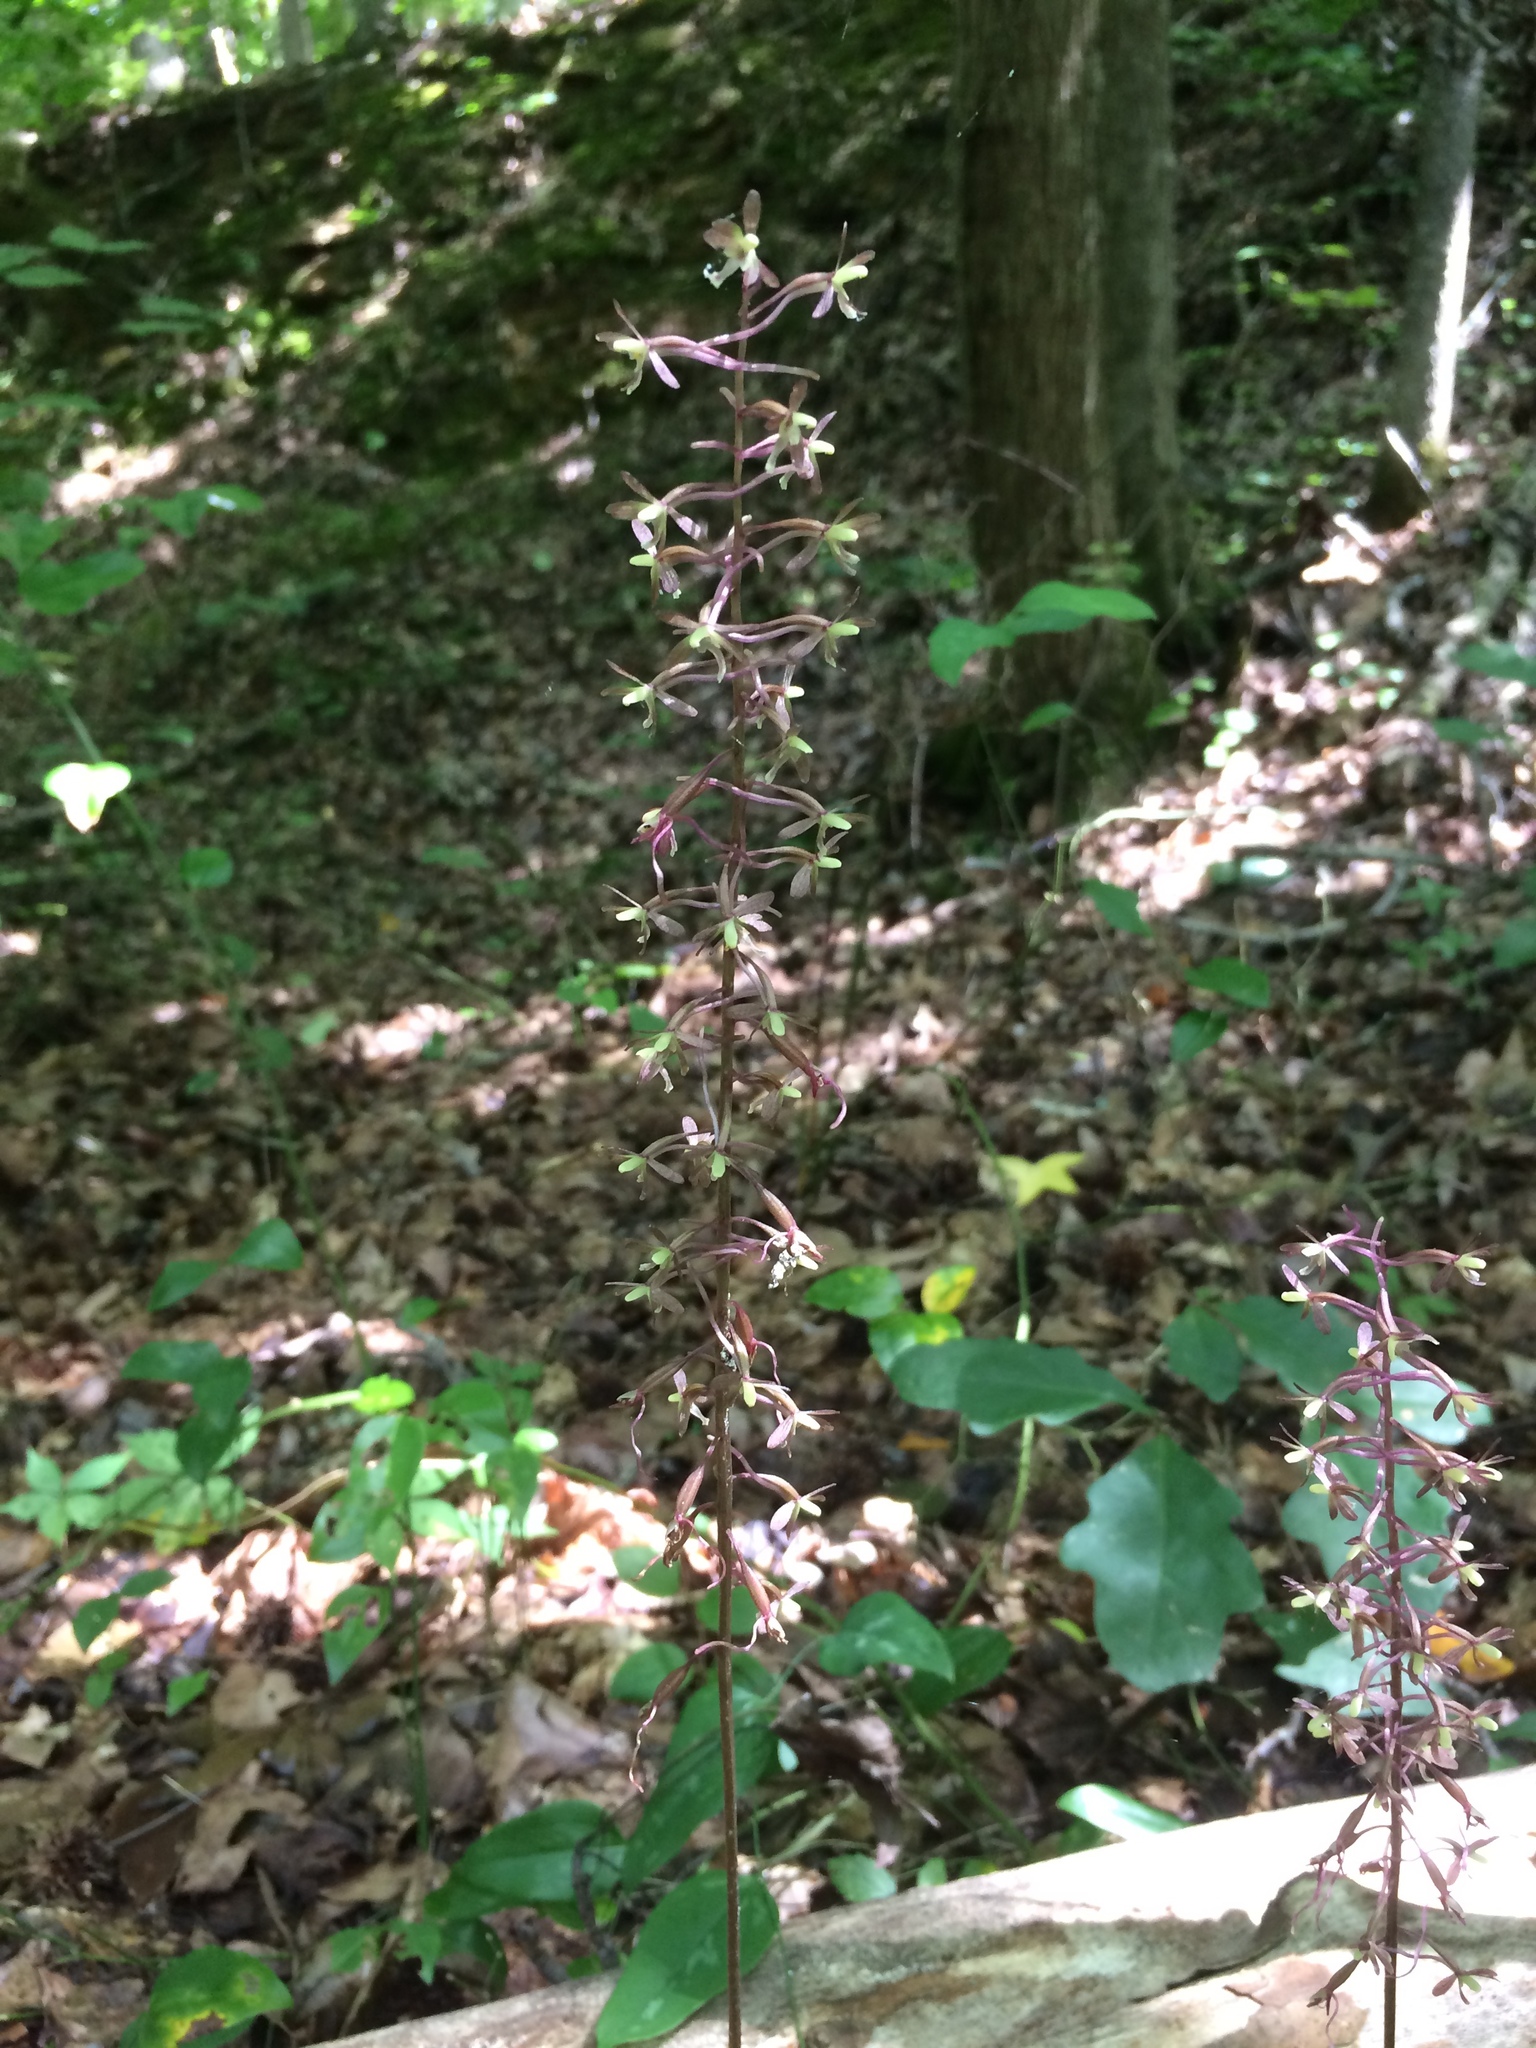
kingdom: Plantae
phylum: Tracheophyta
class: Liliopsida
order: Asparagales
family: Orchidaceae
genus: Tipularia
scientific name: Tipularia discolor
